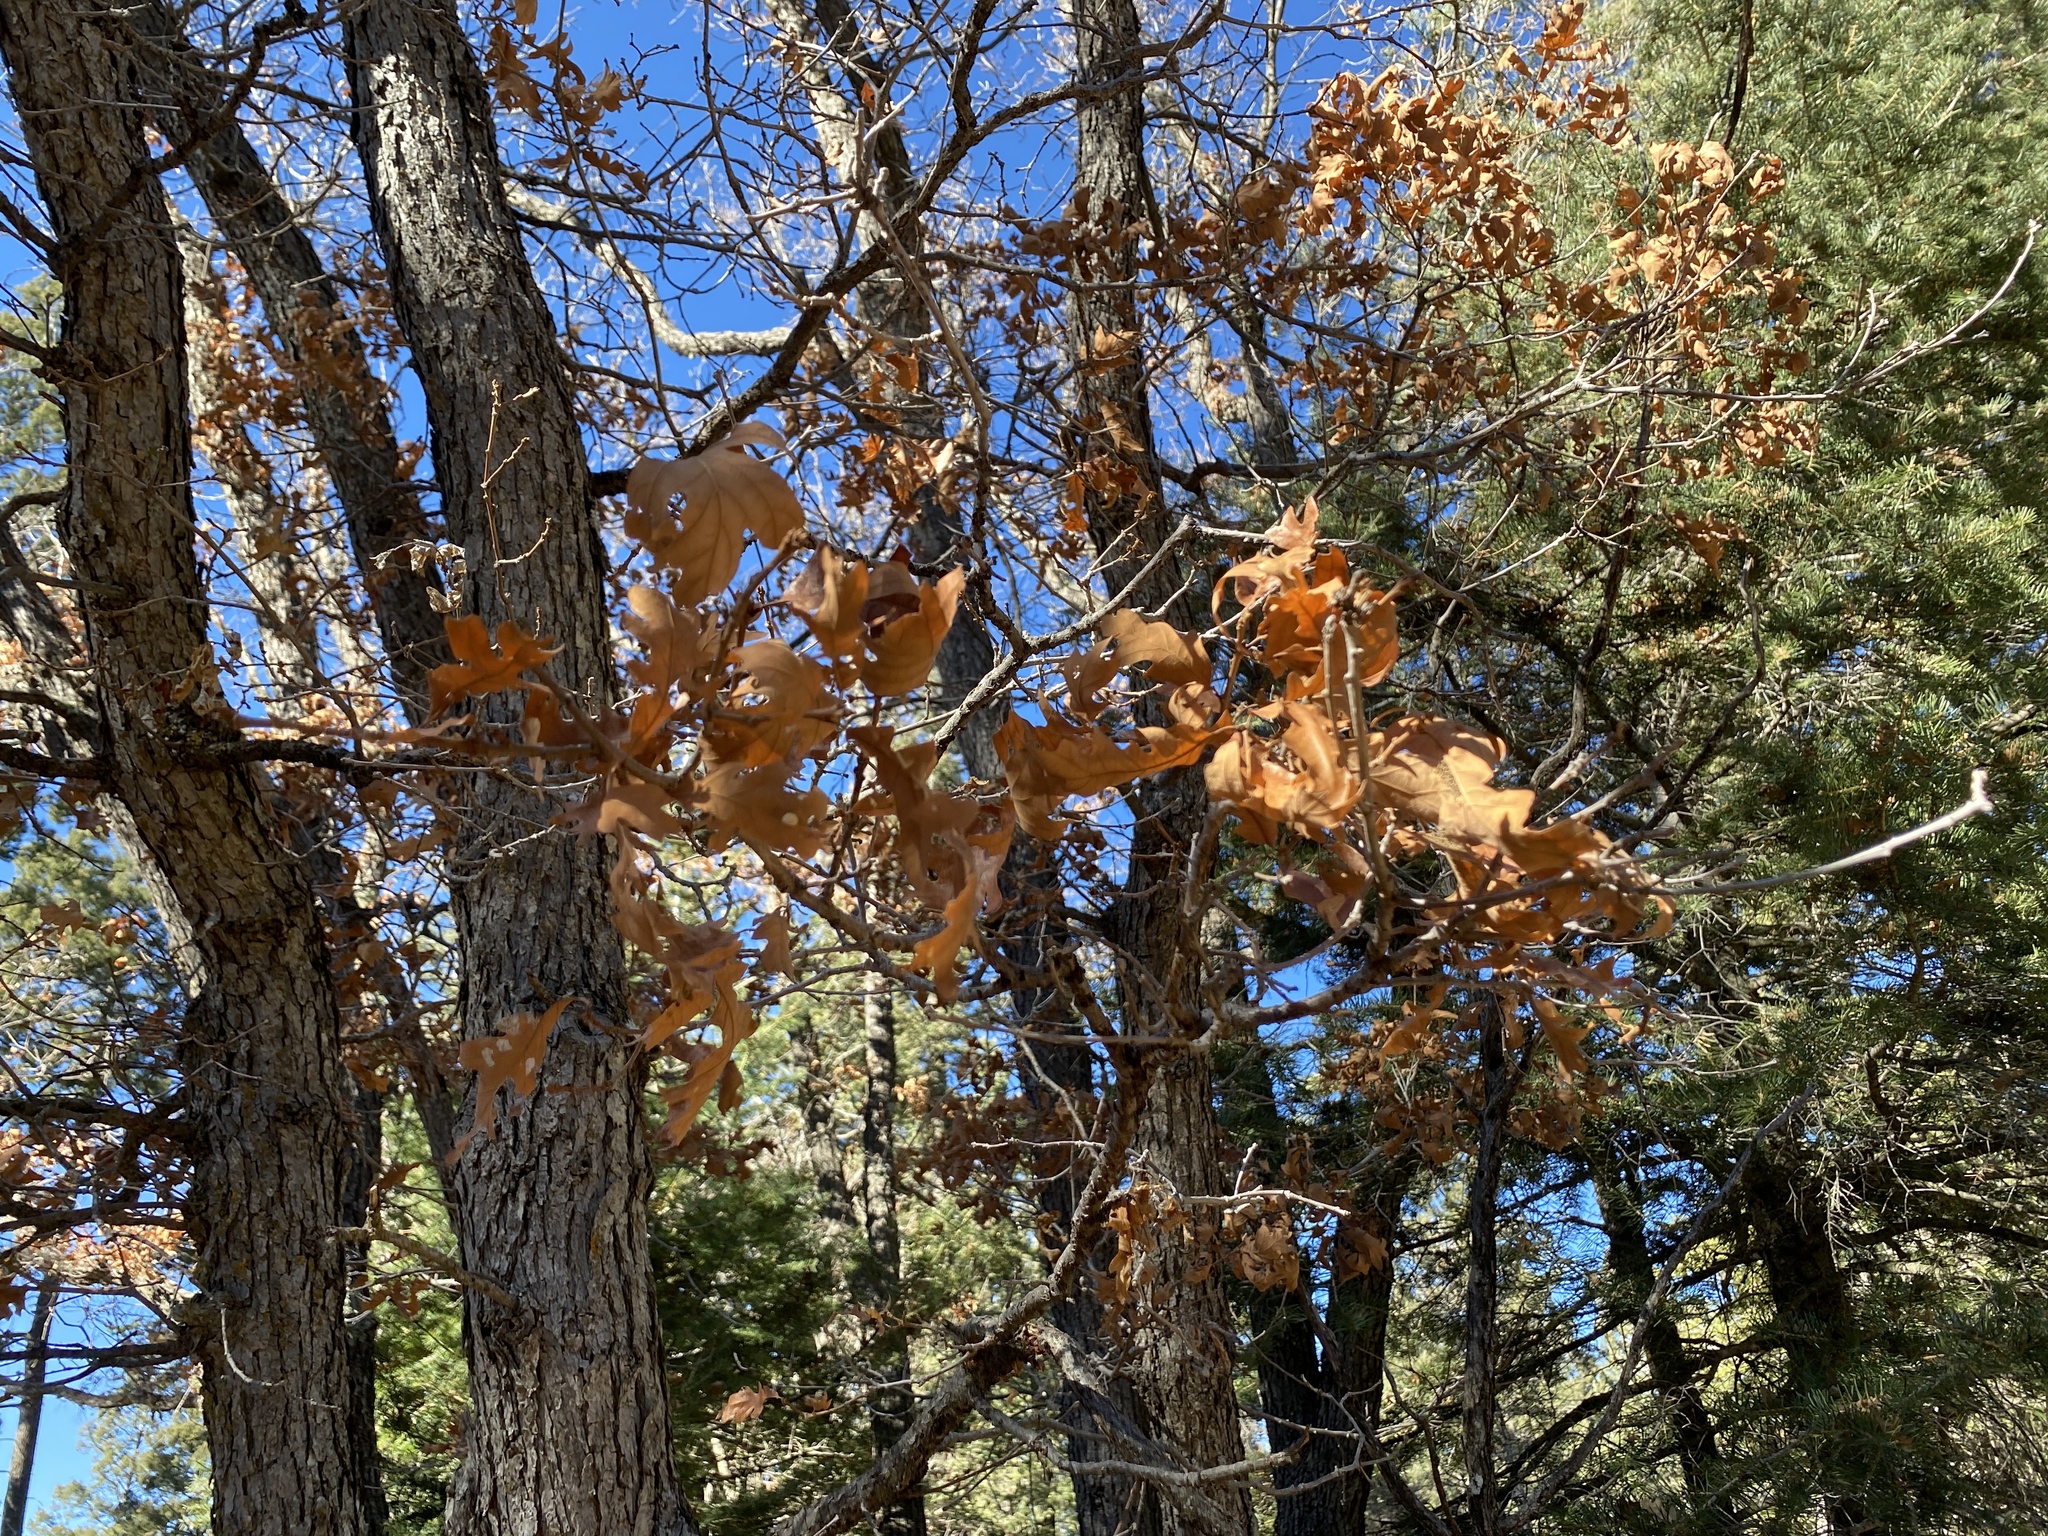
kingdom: Plantae
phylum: Tracheophyta
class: Magnoliopsida
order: Fagales
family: Fagaceae
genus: Quercus
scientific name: Quercus gambelii
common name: Gambel oak
